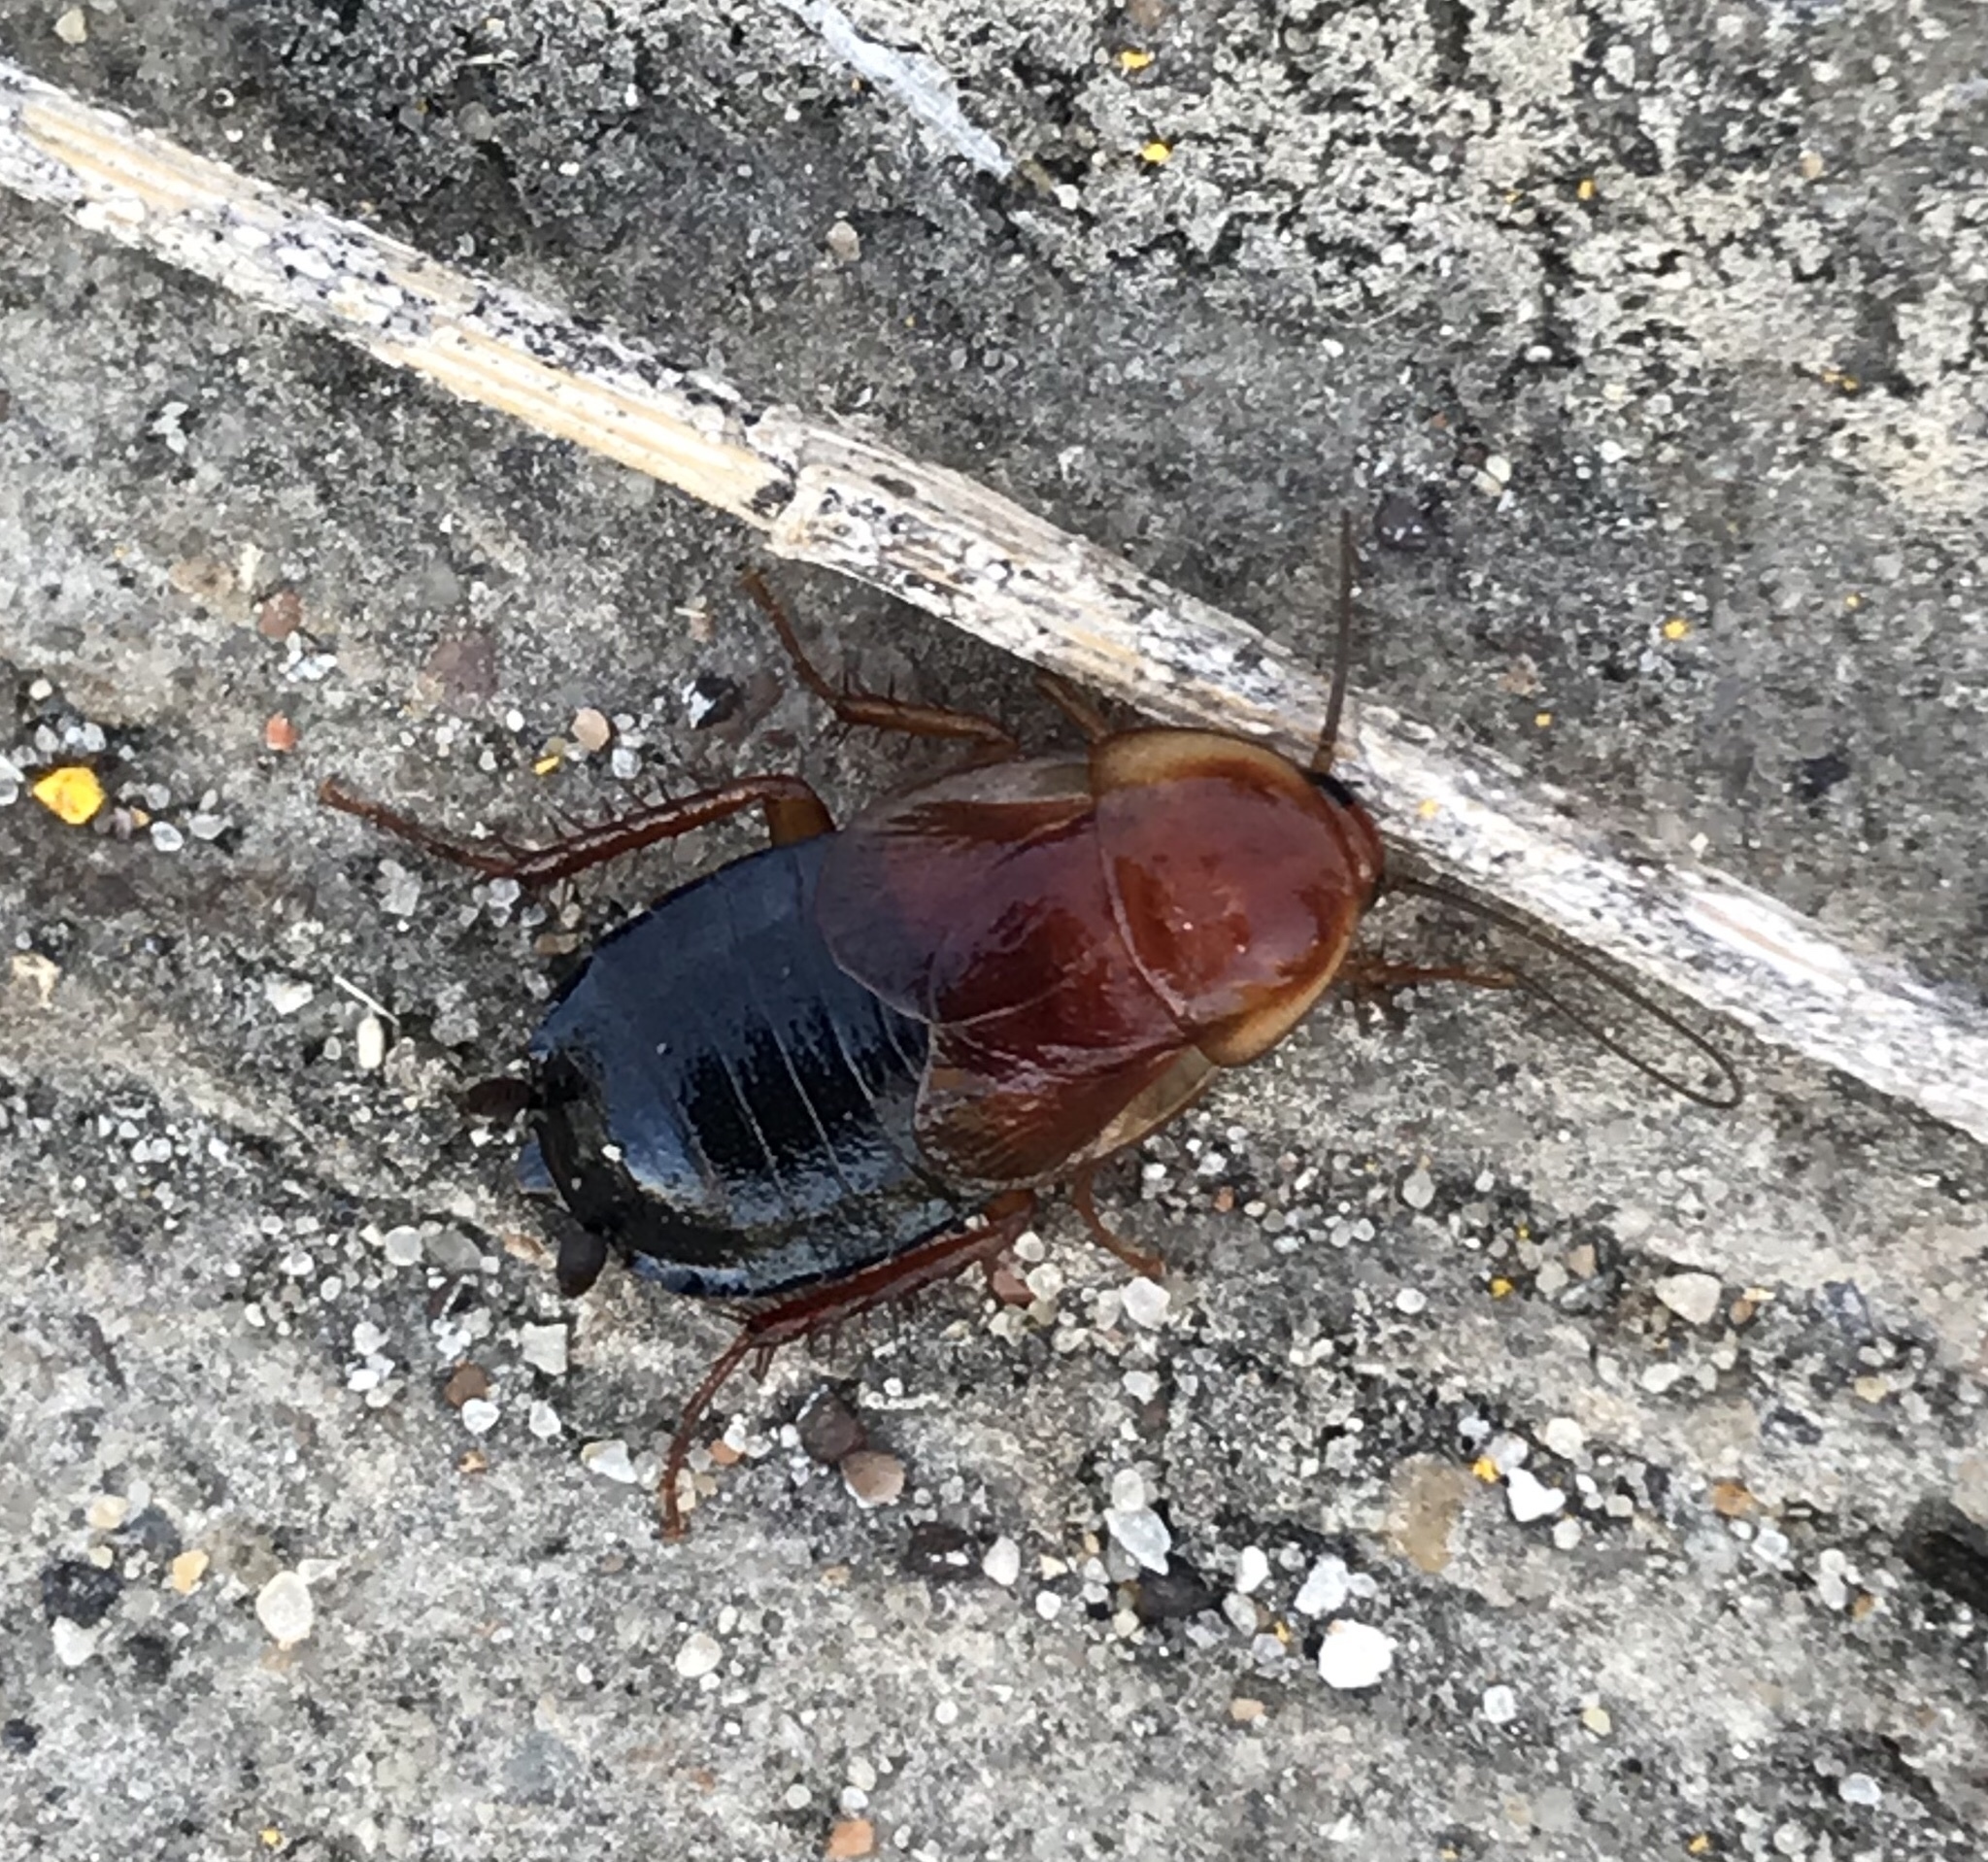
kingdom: Animalia
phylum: Arthropoda
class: Insecta
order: Blattodea
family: Ectobiidae
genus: Parcoblatta
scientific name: Parcoblatta fulvescens
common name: Fulvous wood cockroach
